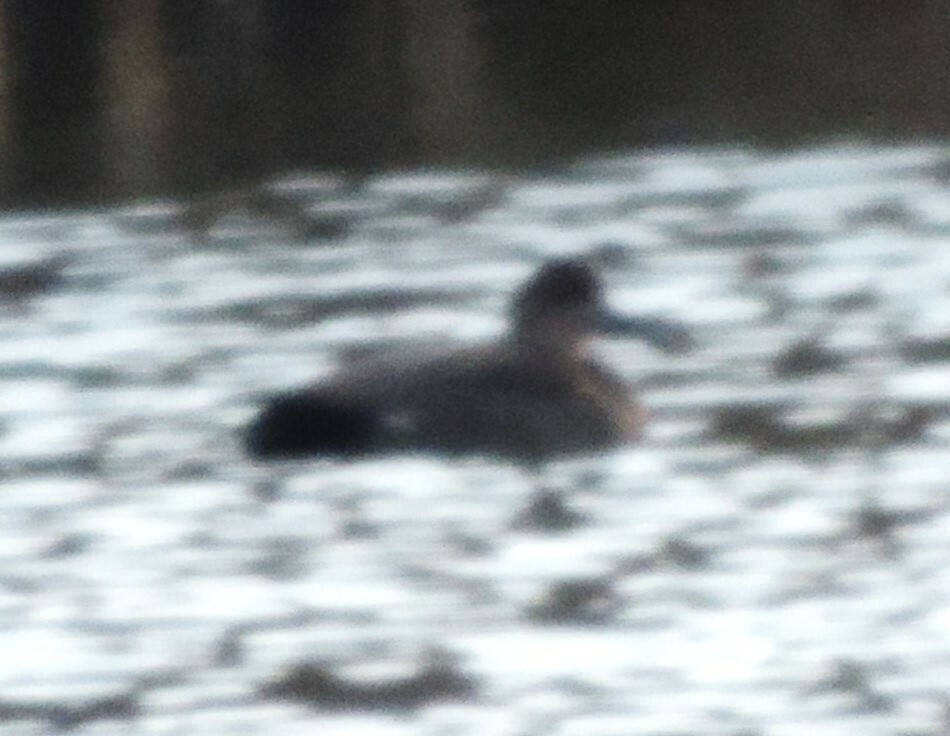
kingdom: Animalia
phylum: Chordata
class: Aves
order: Anseriformes
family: Anatidae
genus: Mareca
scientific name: Mareca strepera
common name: Gadwall
